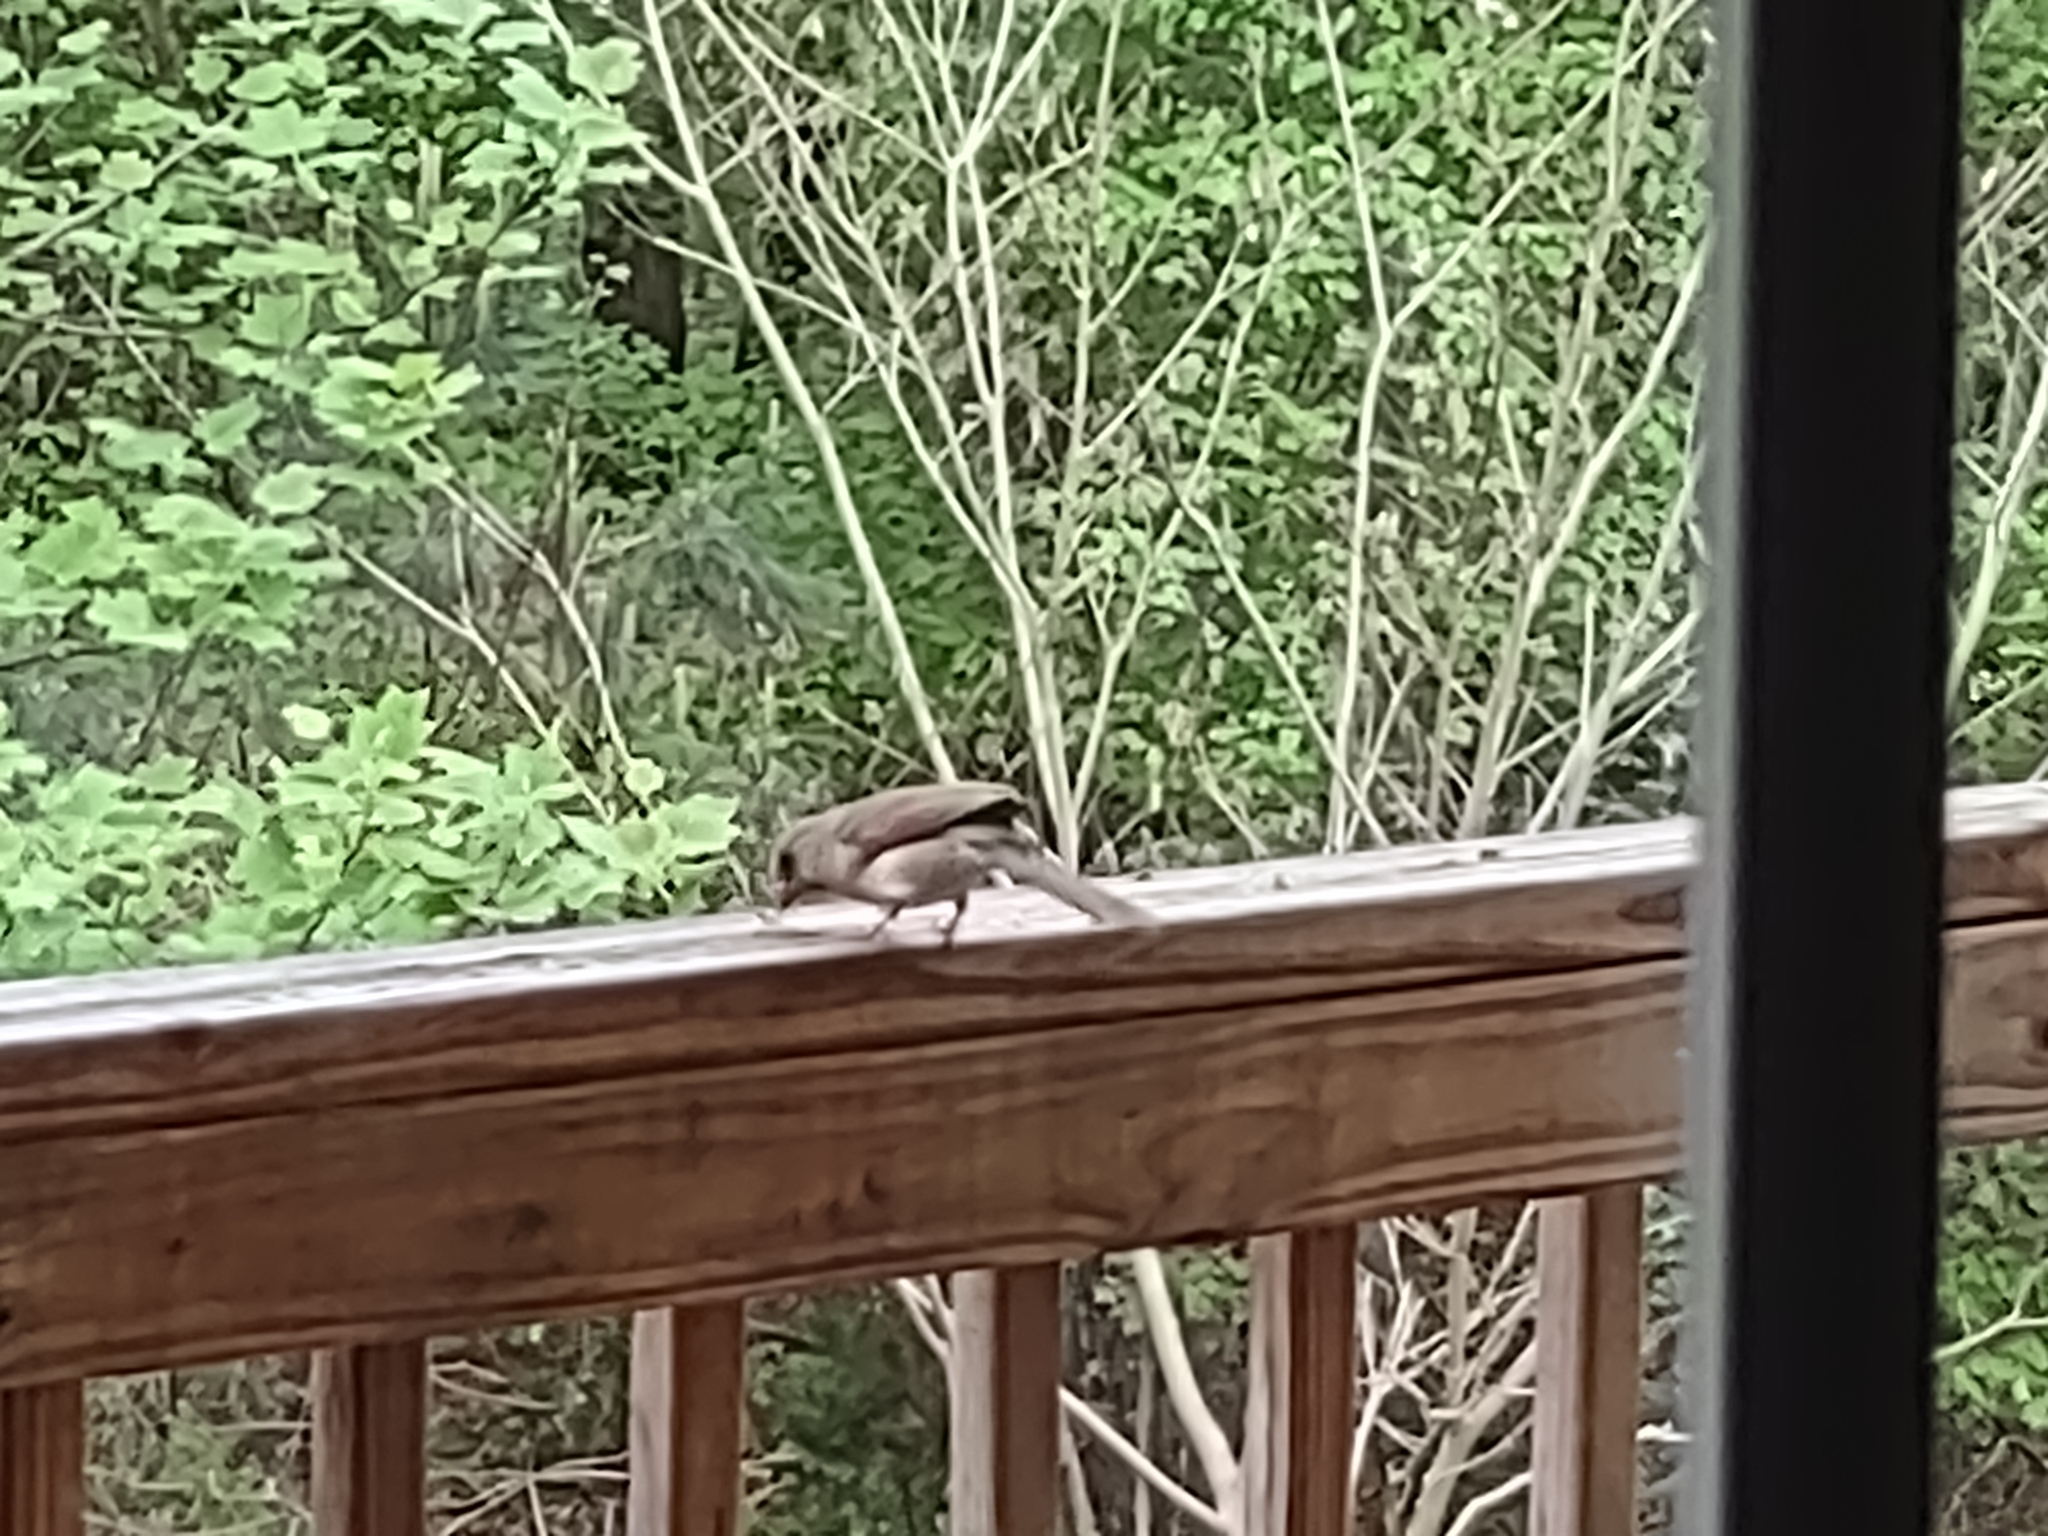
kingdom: Animalia
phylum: Chordata
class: Aves
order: Passeriformes
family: Cardinalidae
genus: Cardinalis
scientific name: Cardinalis cardinalis
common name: Northern cardinal
